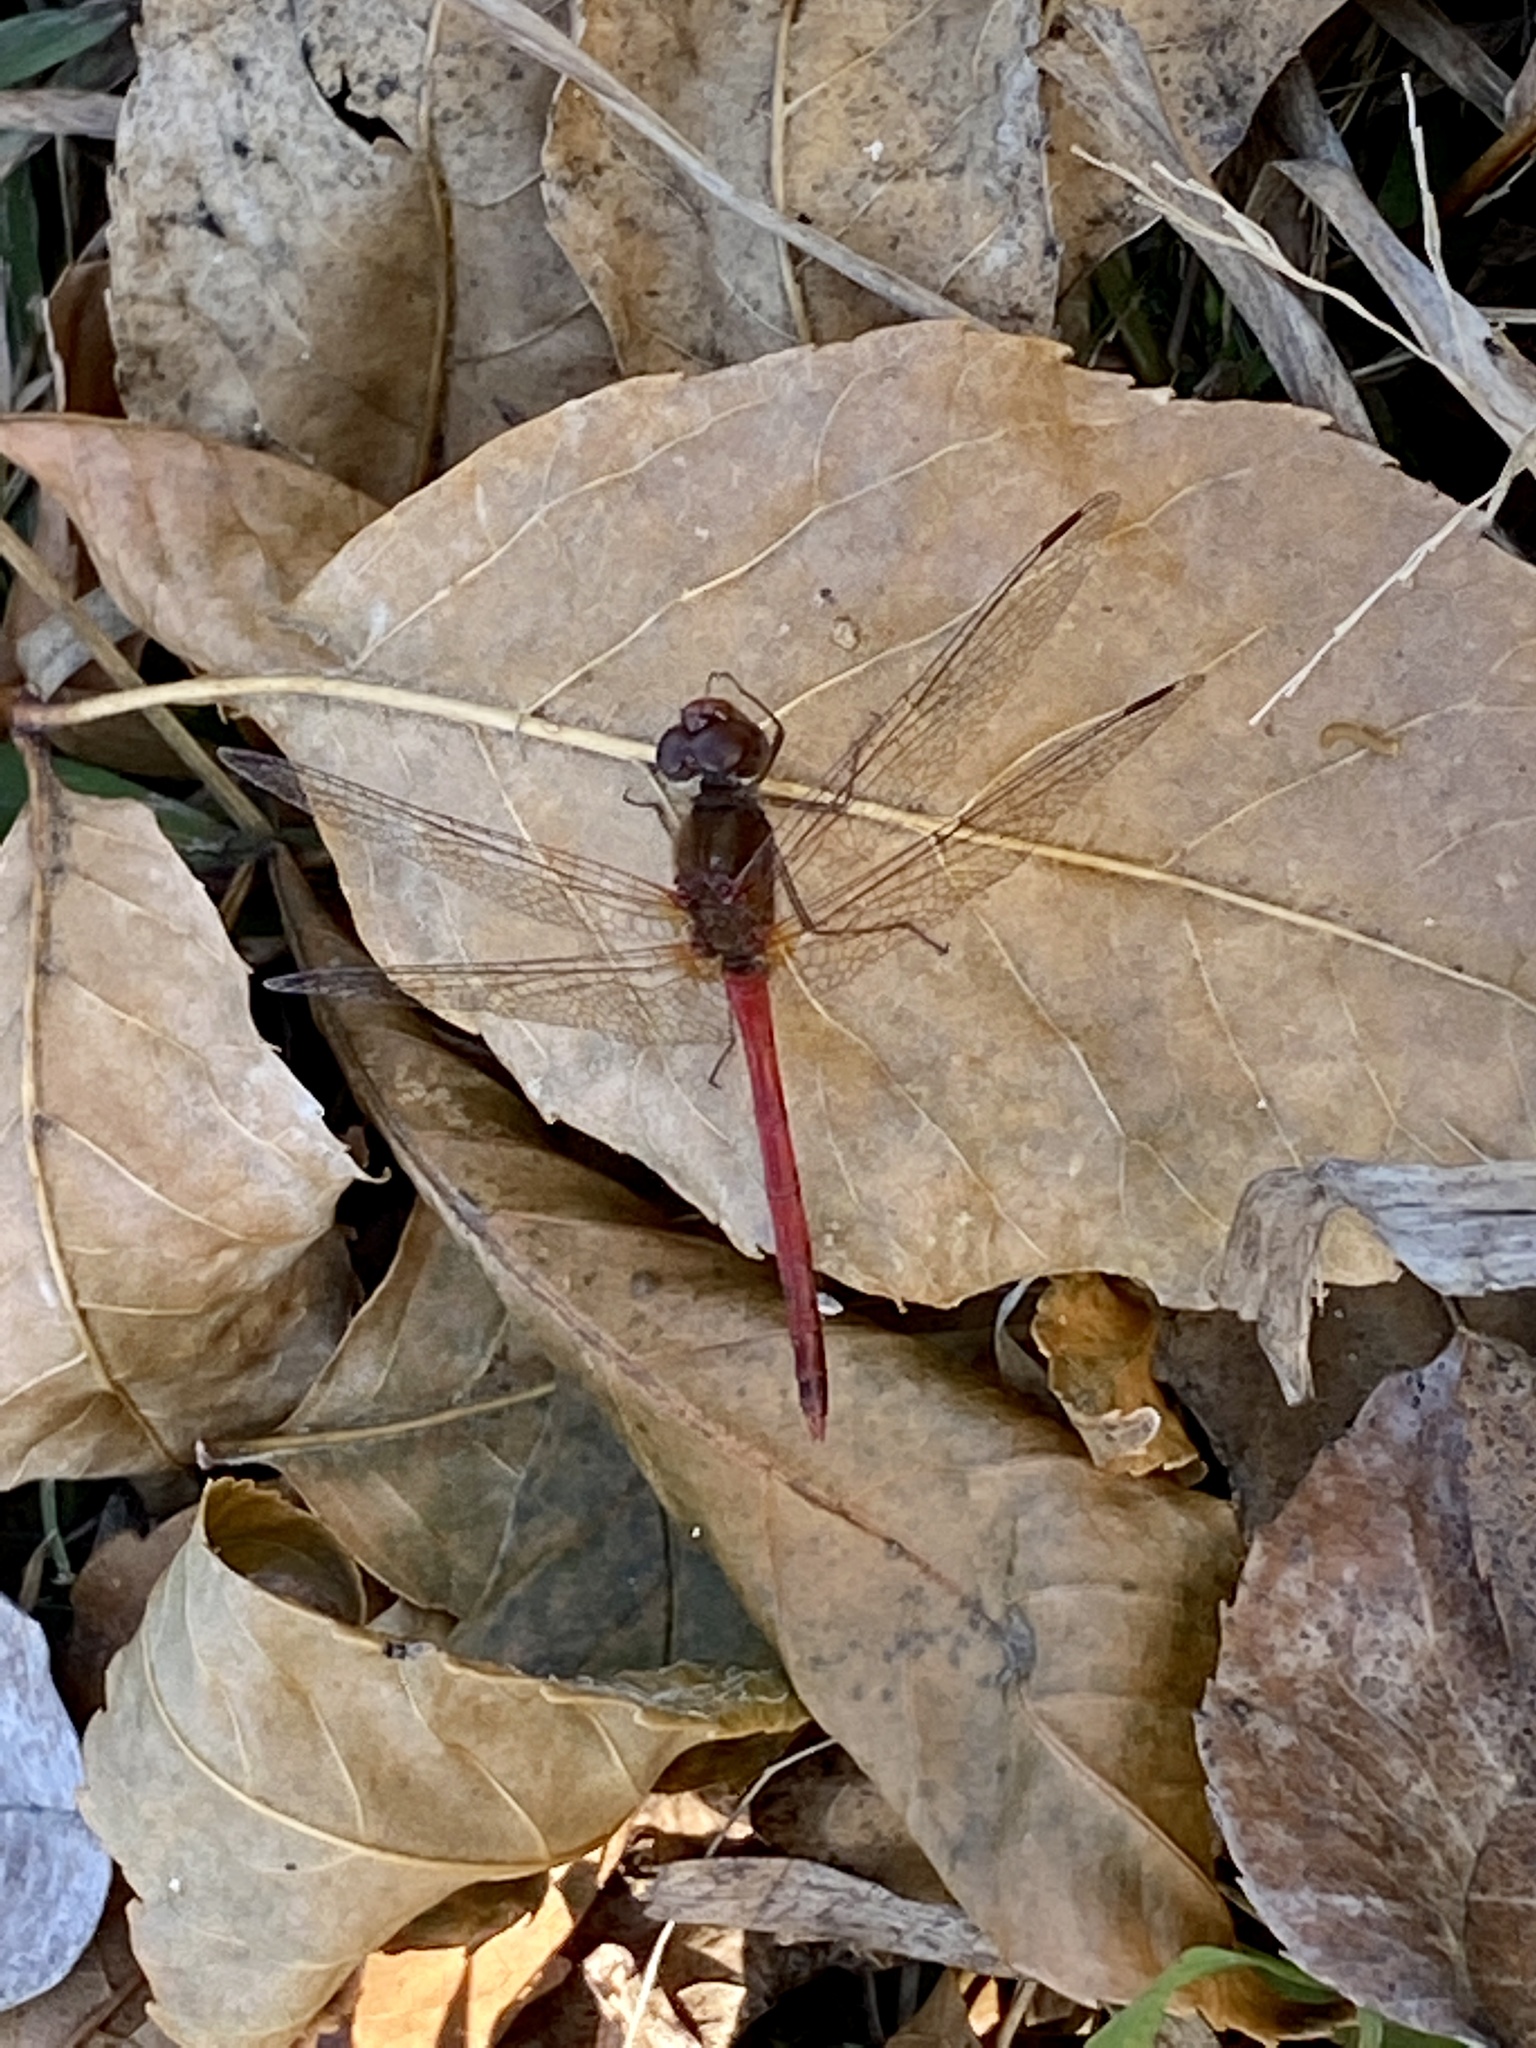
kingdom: Animalia
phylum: Arthropoda
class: Insecta
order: Odonata
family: Libellulidae
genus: Sympetrum
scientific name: Sympetrum vicinum
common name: Autumn meadowhawk
